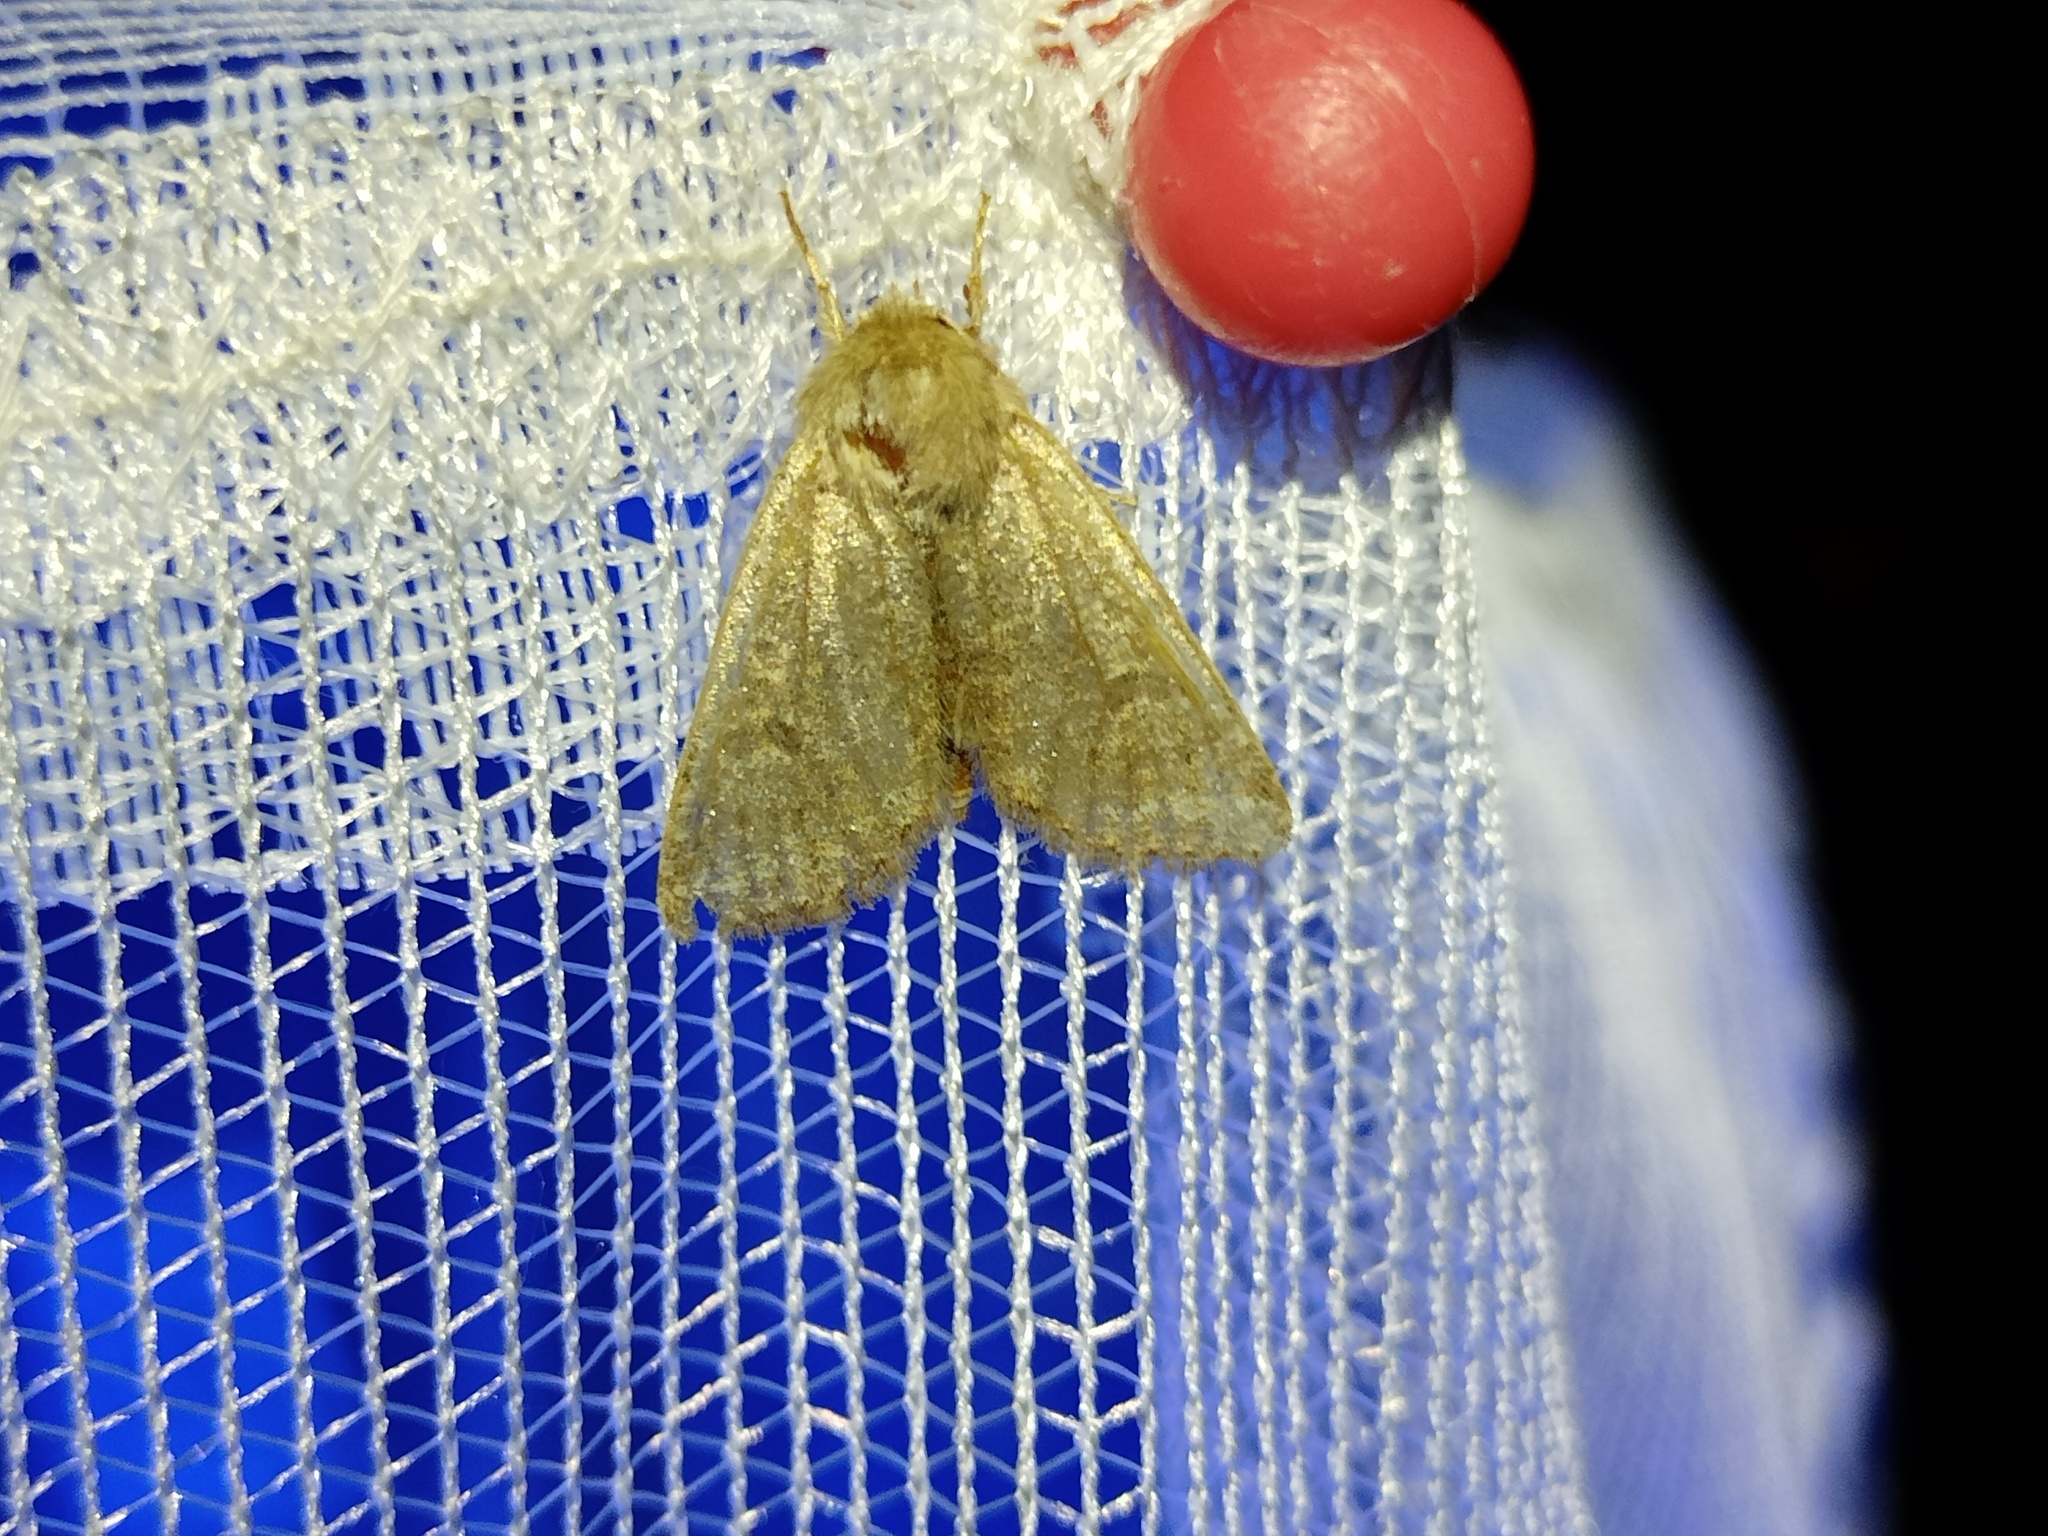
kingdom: Animalia
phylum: Arthropoda
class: Insecta
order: Lepidoptera
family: Noctuidae
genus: Orthosia
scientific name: Orthosia cruda
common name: Small quaker
